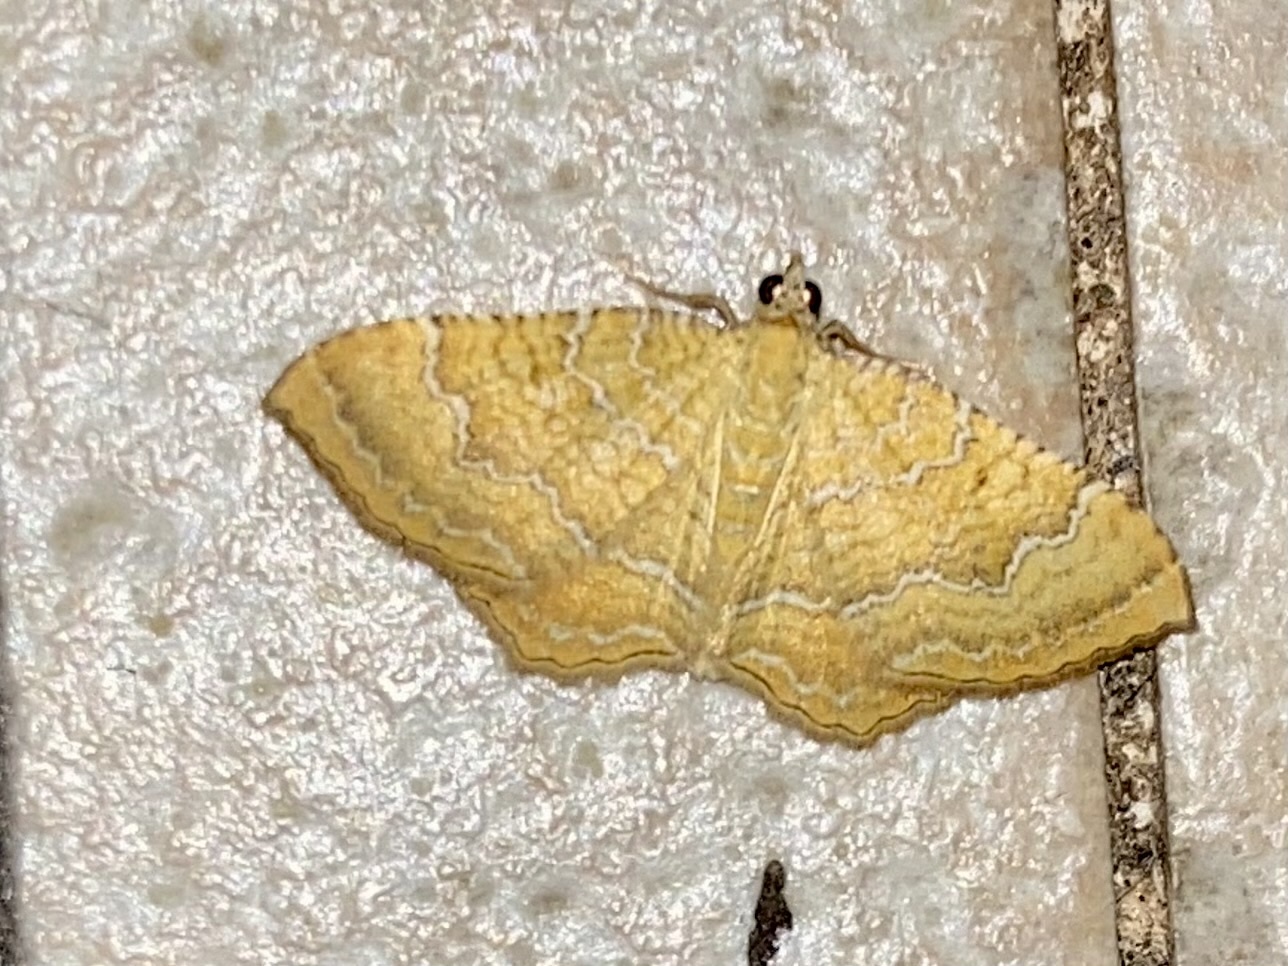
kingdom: Animalia
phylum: Arthropoda
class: Insecta
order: Lepidoptera
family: Geometridae
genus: Camptogramma
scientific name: Camptogramma bilineata
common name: Yellow shell
